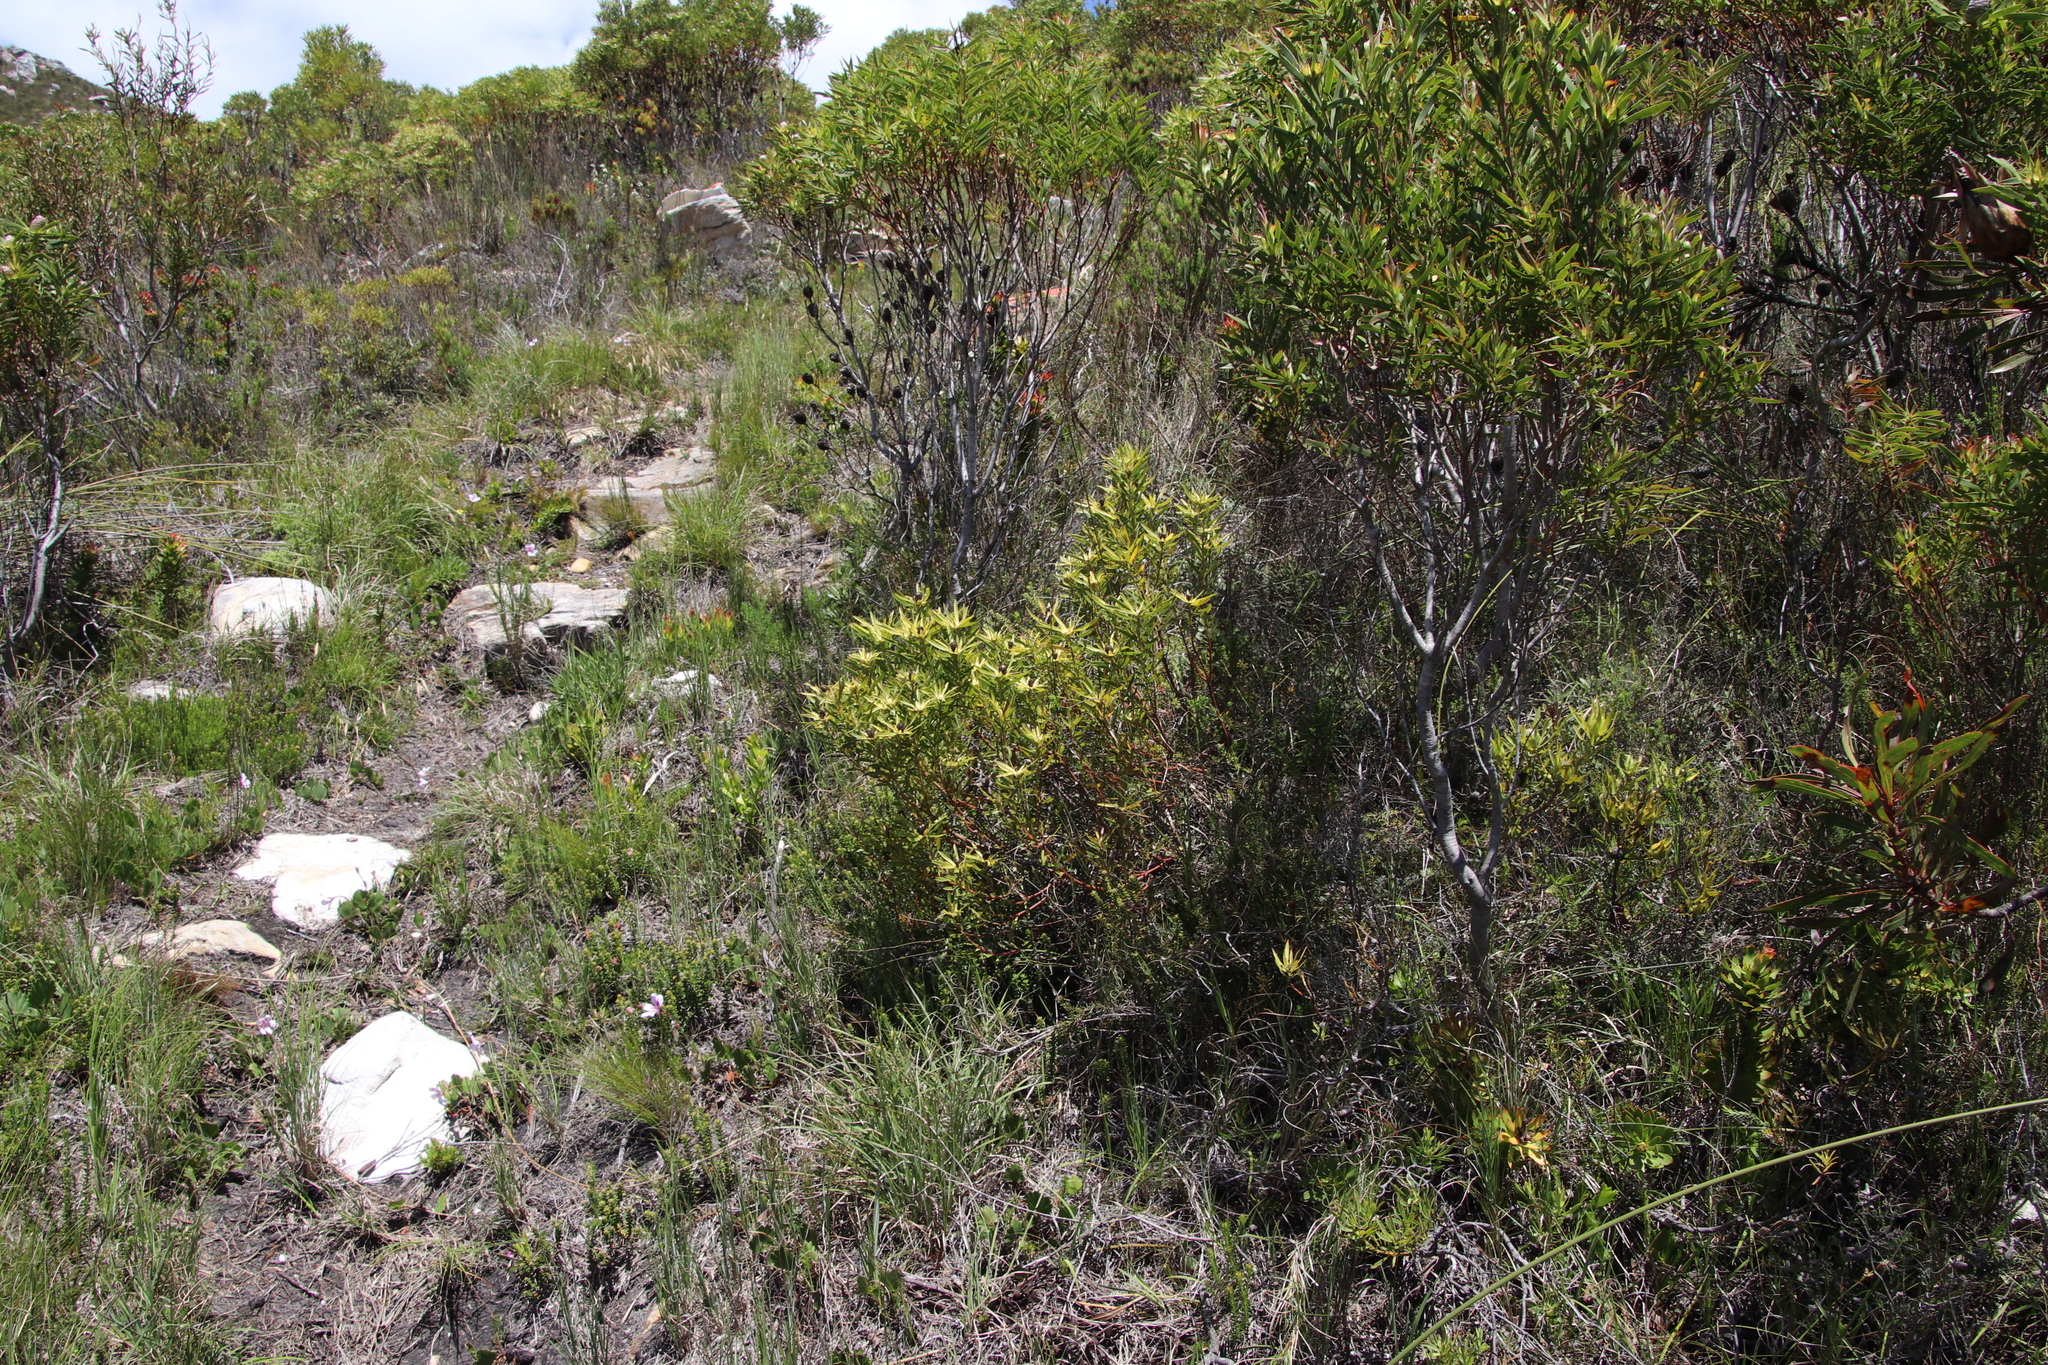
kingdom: Plantae
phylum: Tracheophyta
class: Magnoliopsida
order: Proteales
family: Proteaceae
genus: Leucadendron
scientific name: Leucadendron xanthoconus
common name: Sickle-leaf conebush
